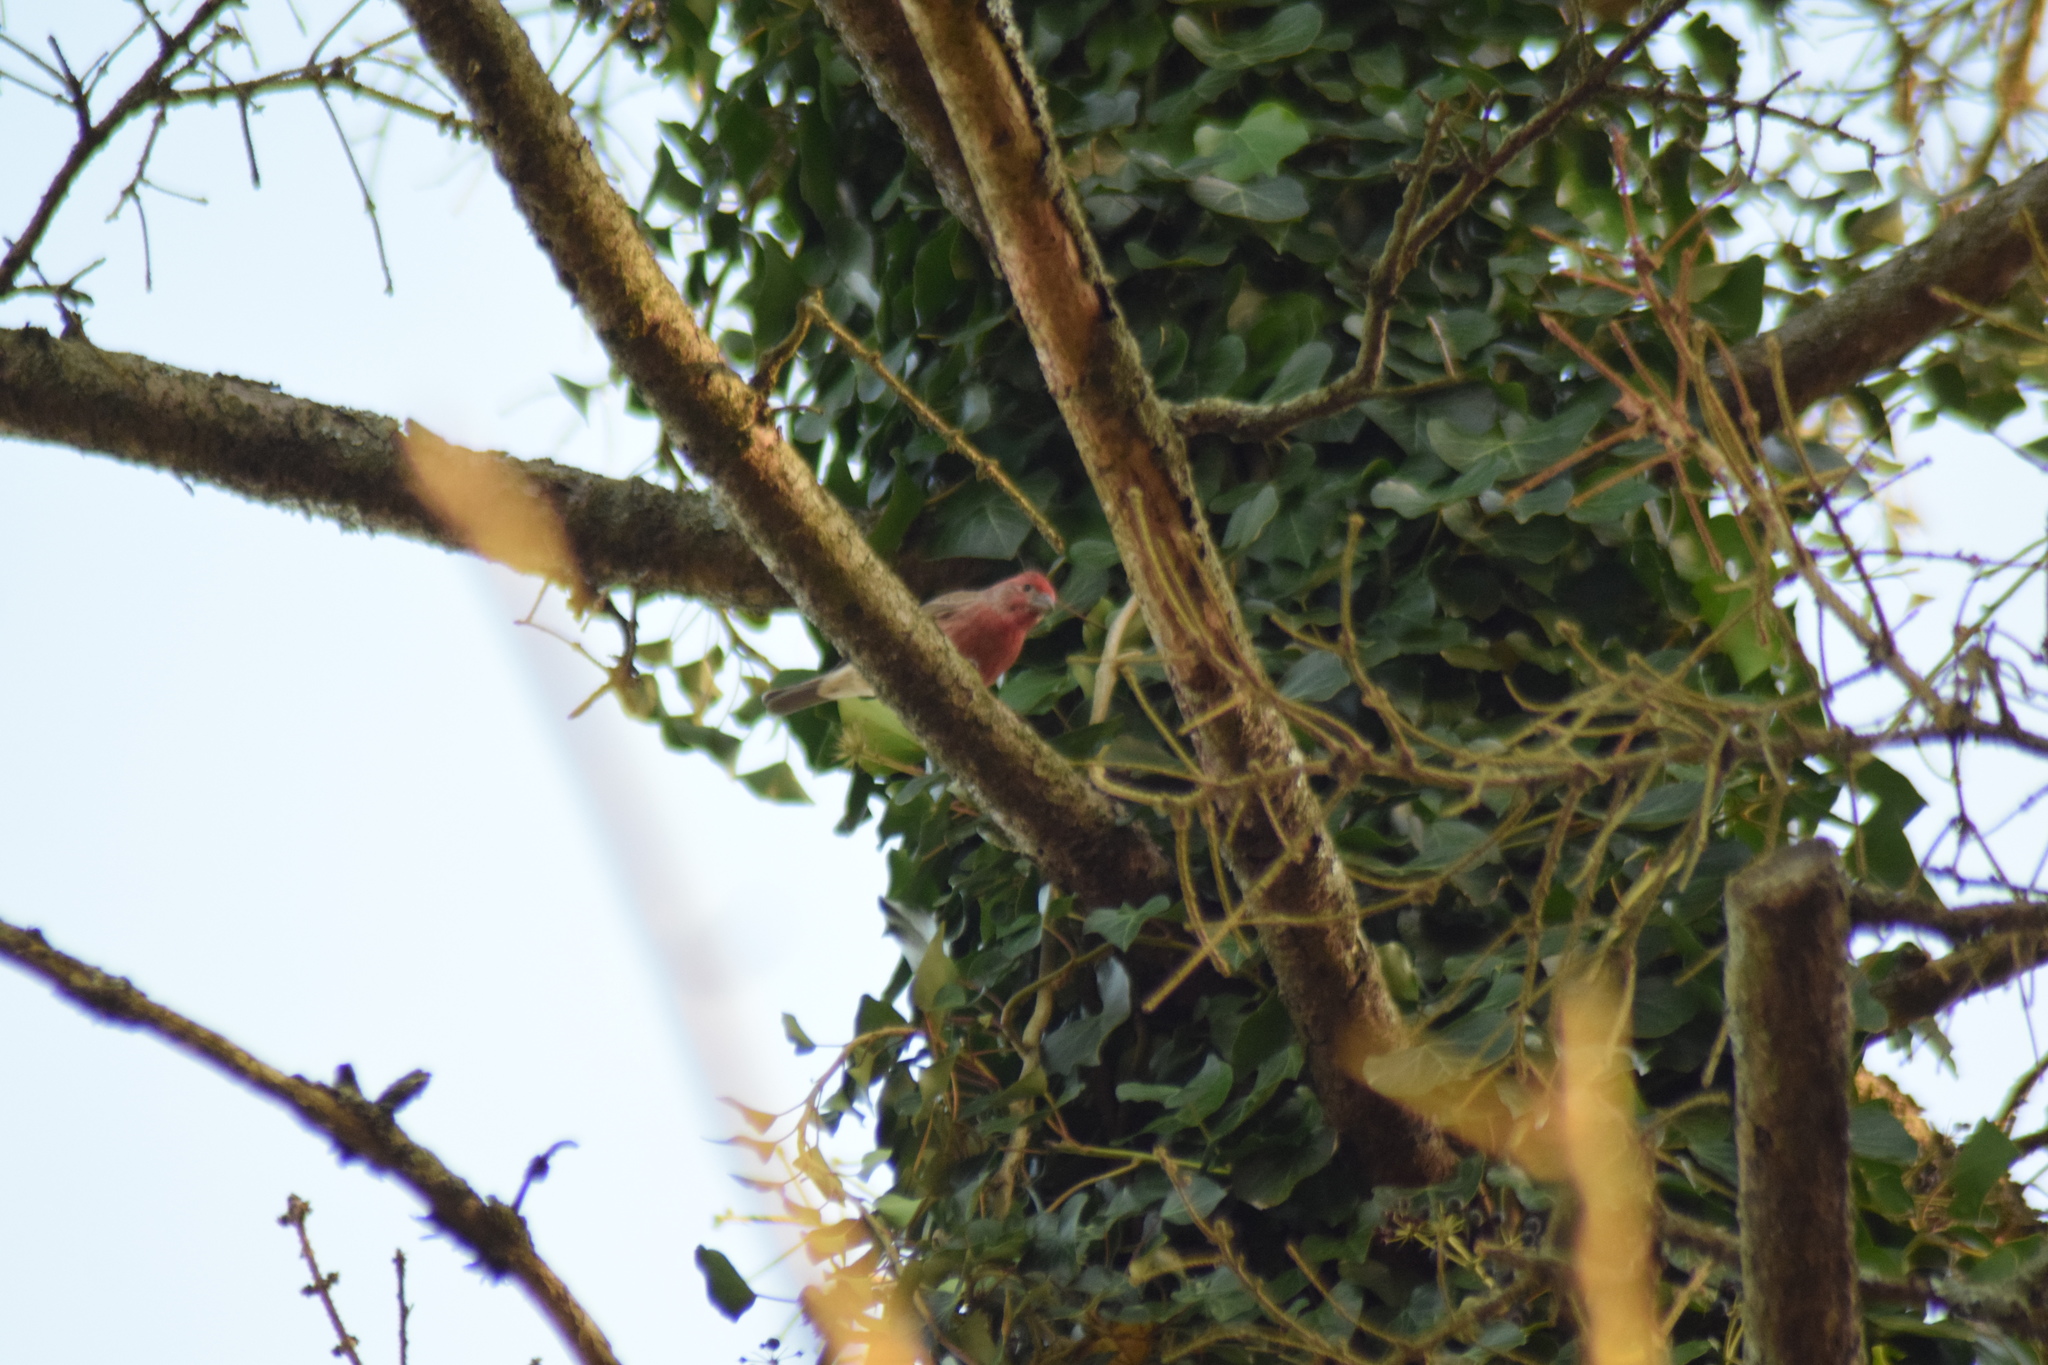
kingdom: Animalia
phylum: Chordata
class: Aves
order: Passeriformes
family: Fringillidae
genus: Haemorhous
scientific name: Haemorhous mexicanus
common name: House finch
